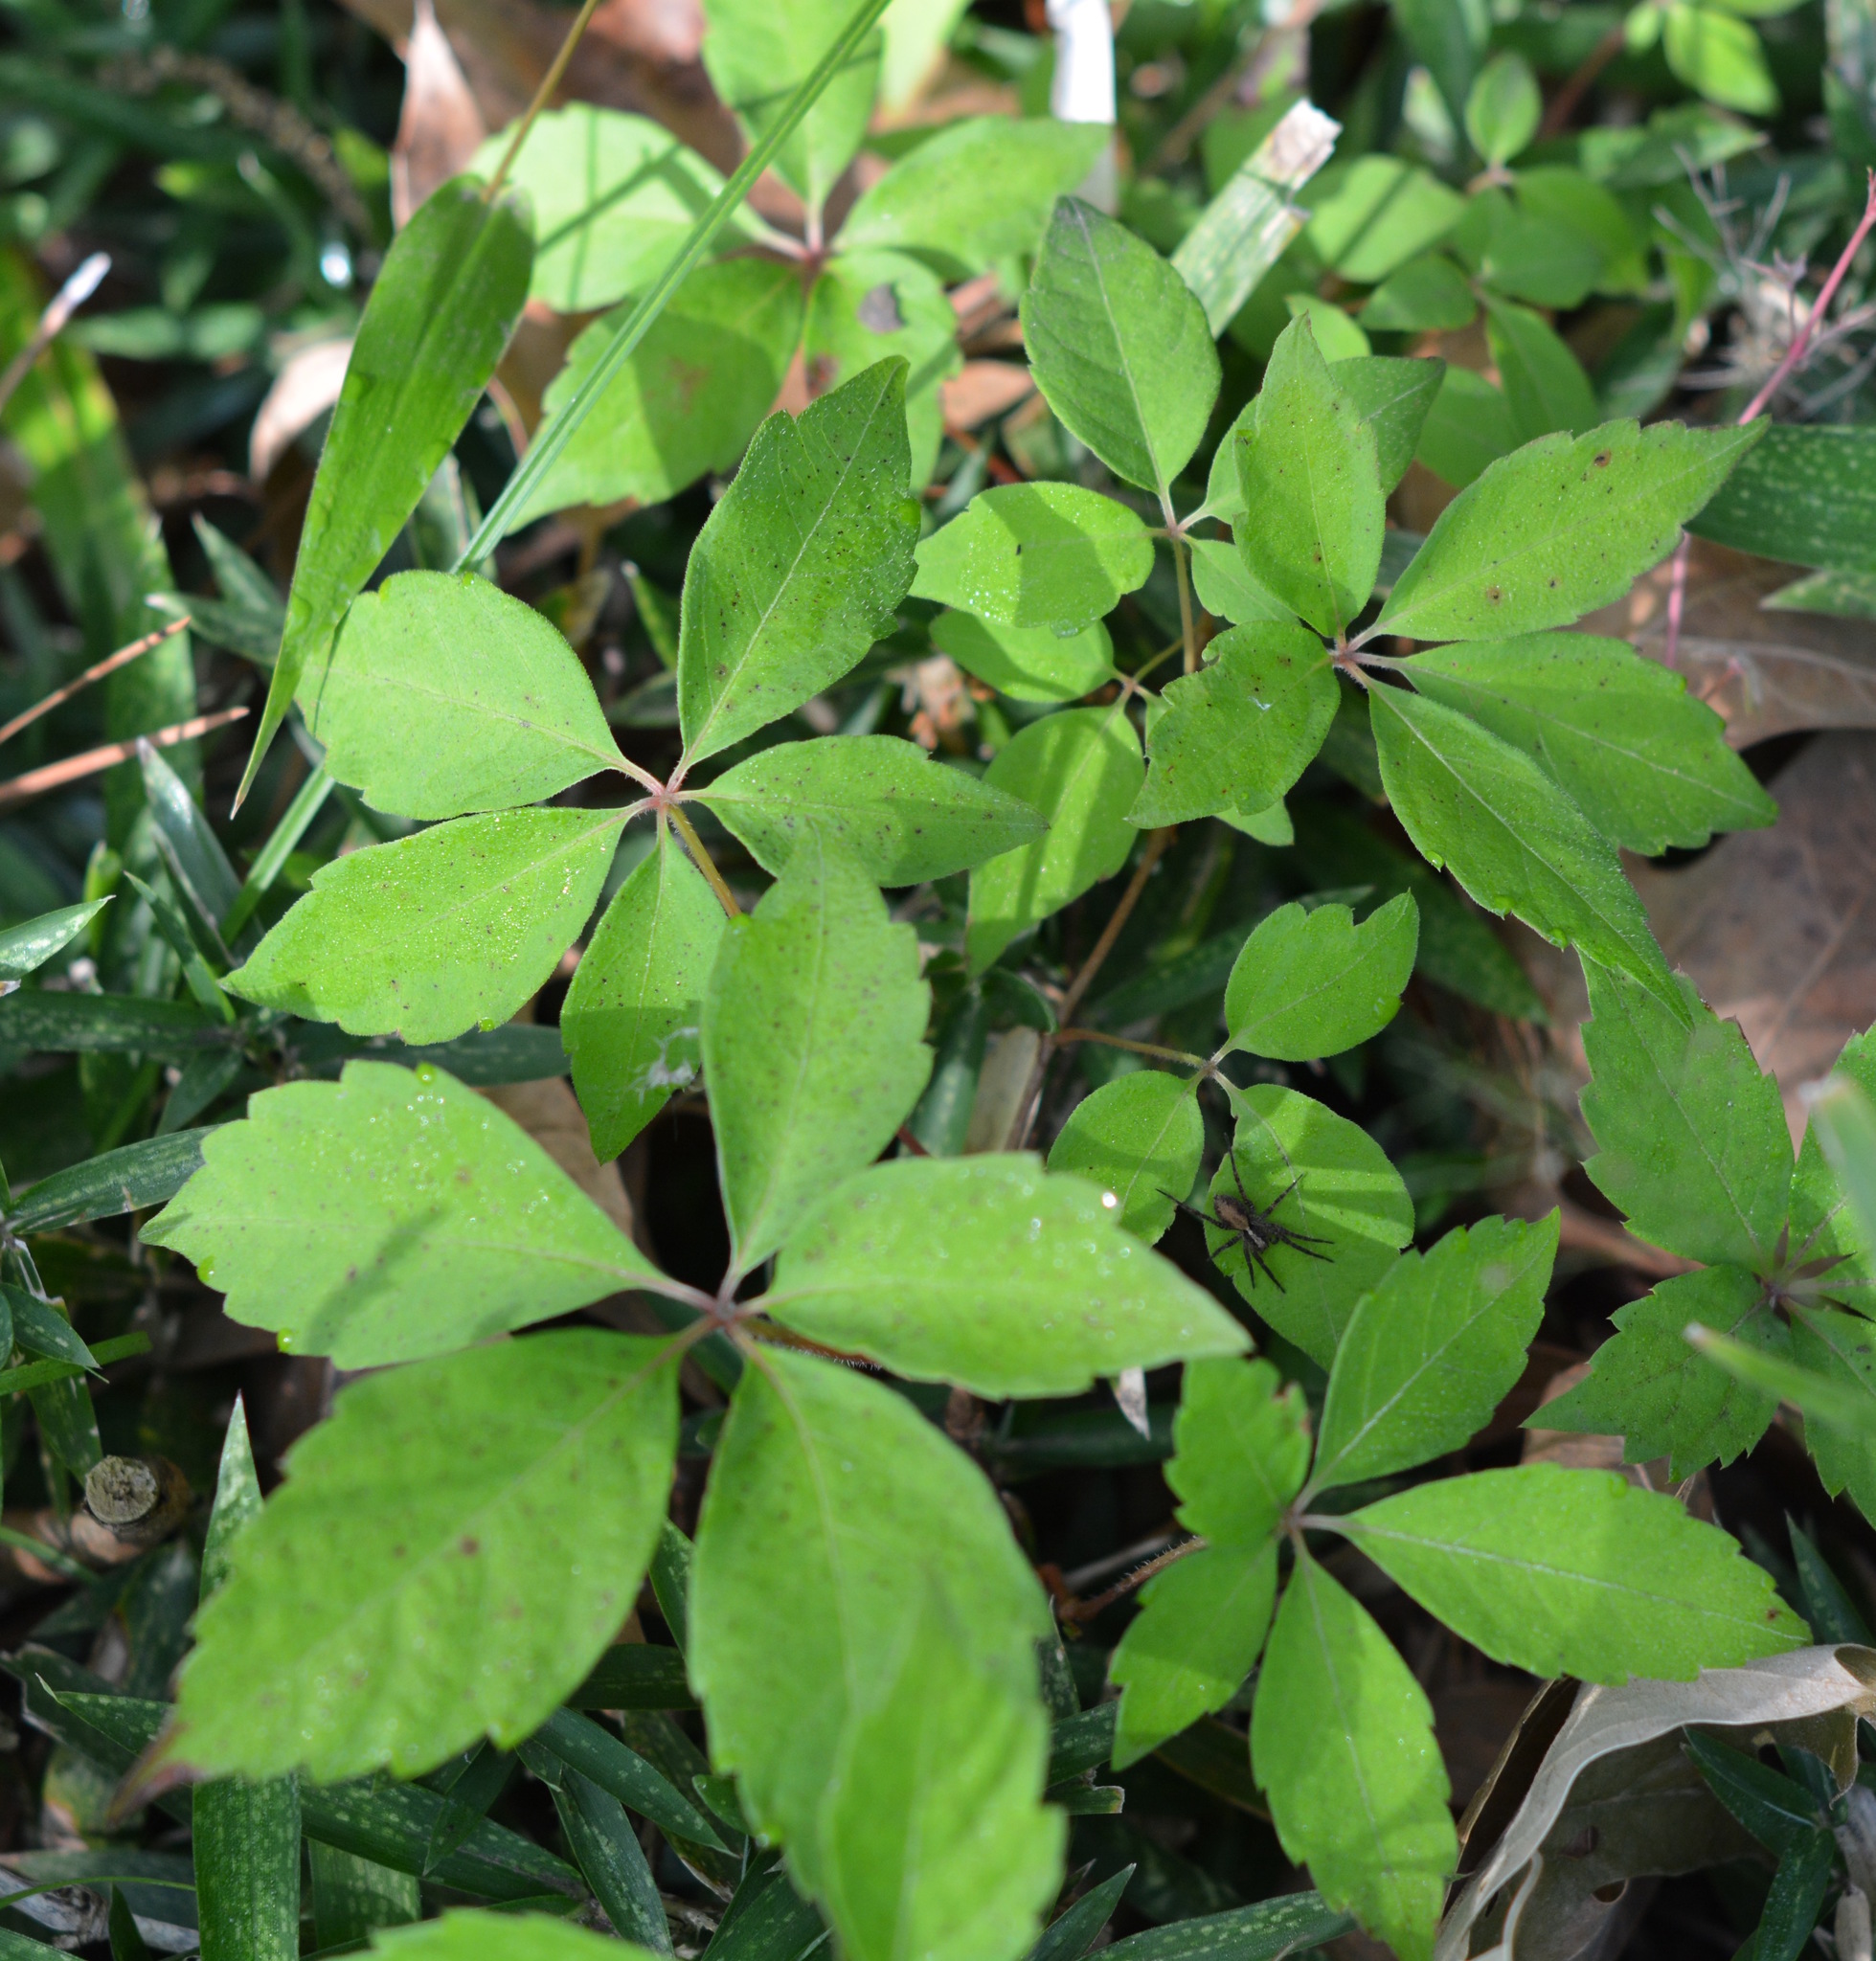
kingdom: Plantae
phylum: Tracheophyta
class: Magnoliopsida
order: Vitales
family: Vitaceae
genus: Parthenocissus
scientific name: Parthenocissus quinquefolia
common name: Virginia-creeper
